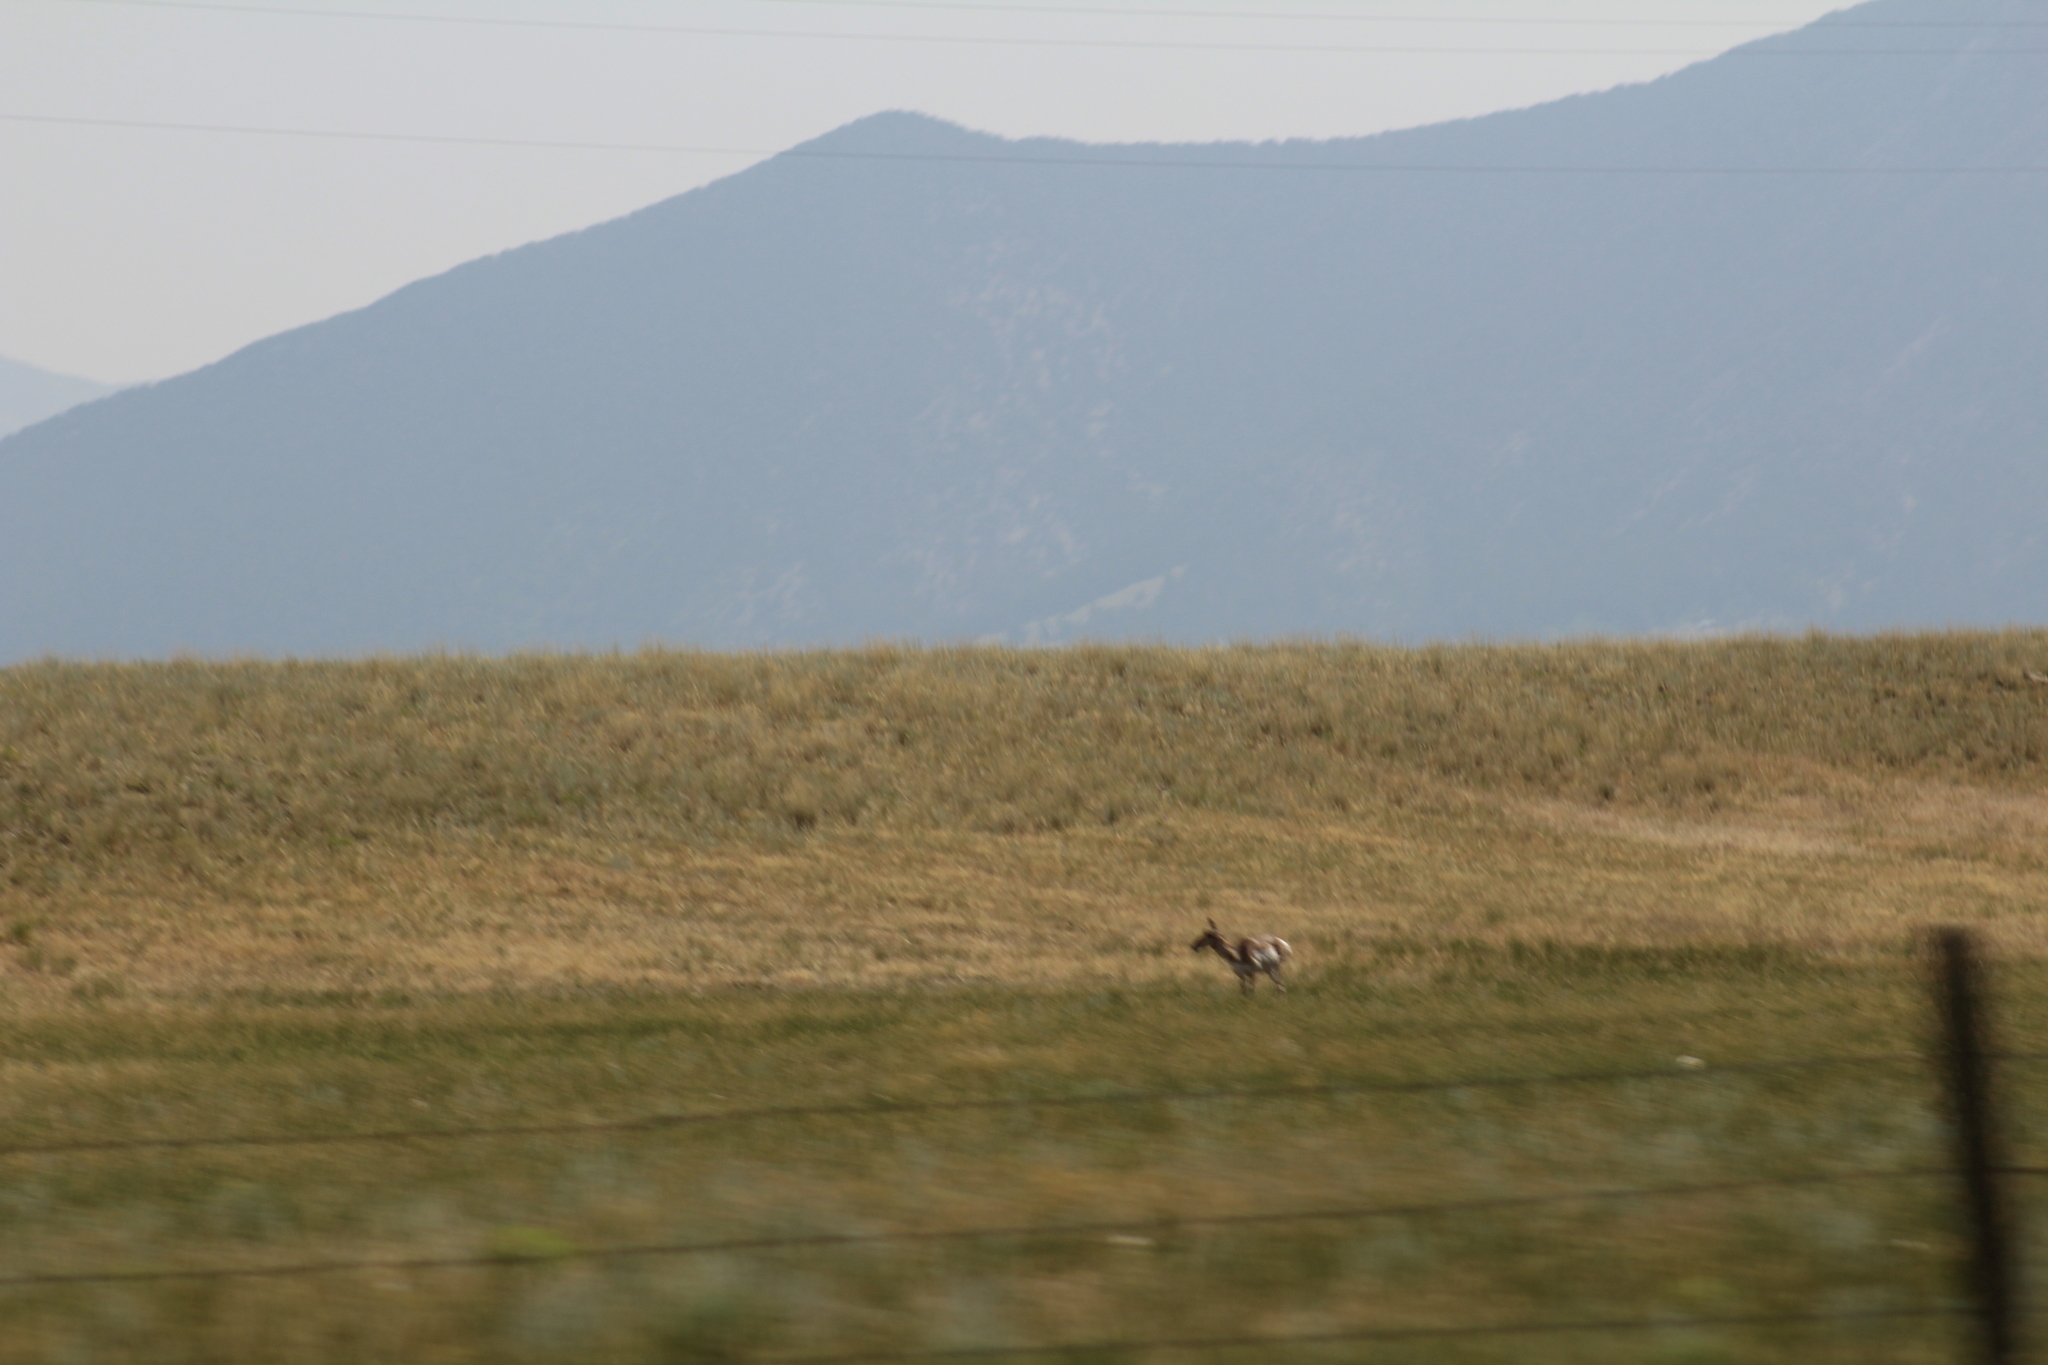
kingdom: Animalia
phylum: Chordata
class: Mammalia
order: Artiodactyla
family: Antilocapridae
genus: Antilocapra
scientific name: Antilocapra americana
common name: Pronghorn
